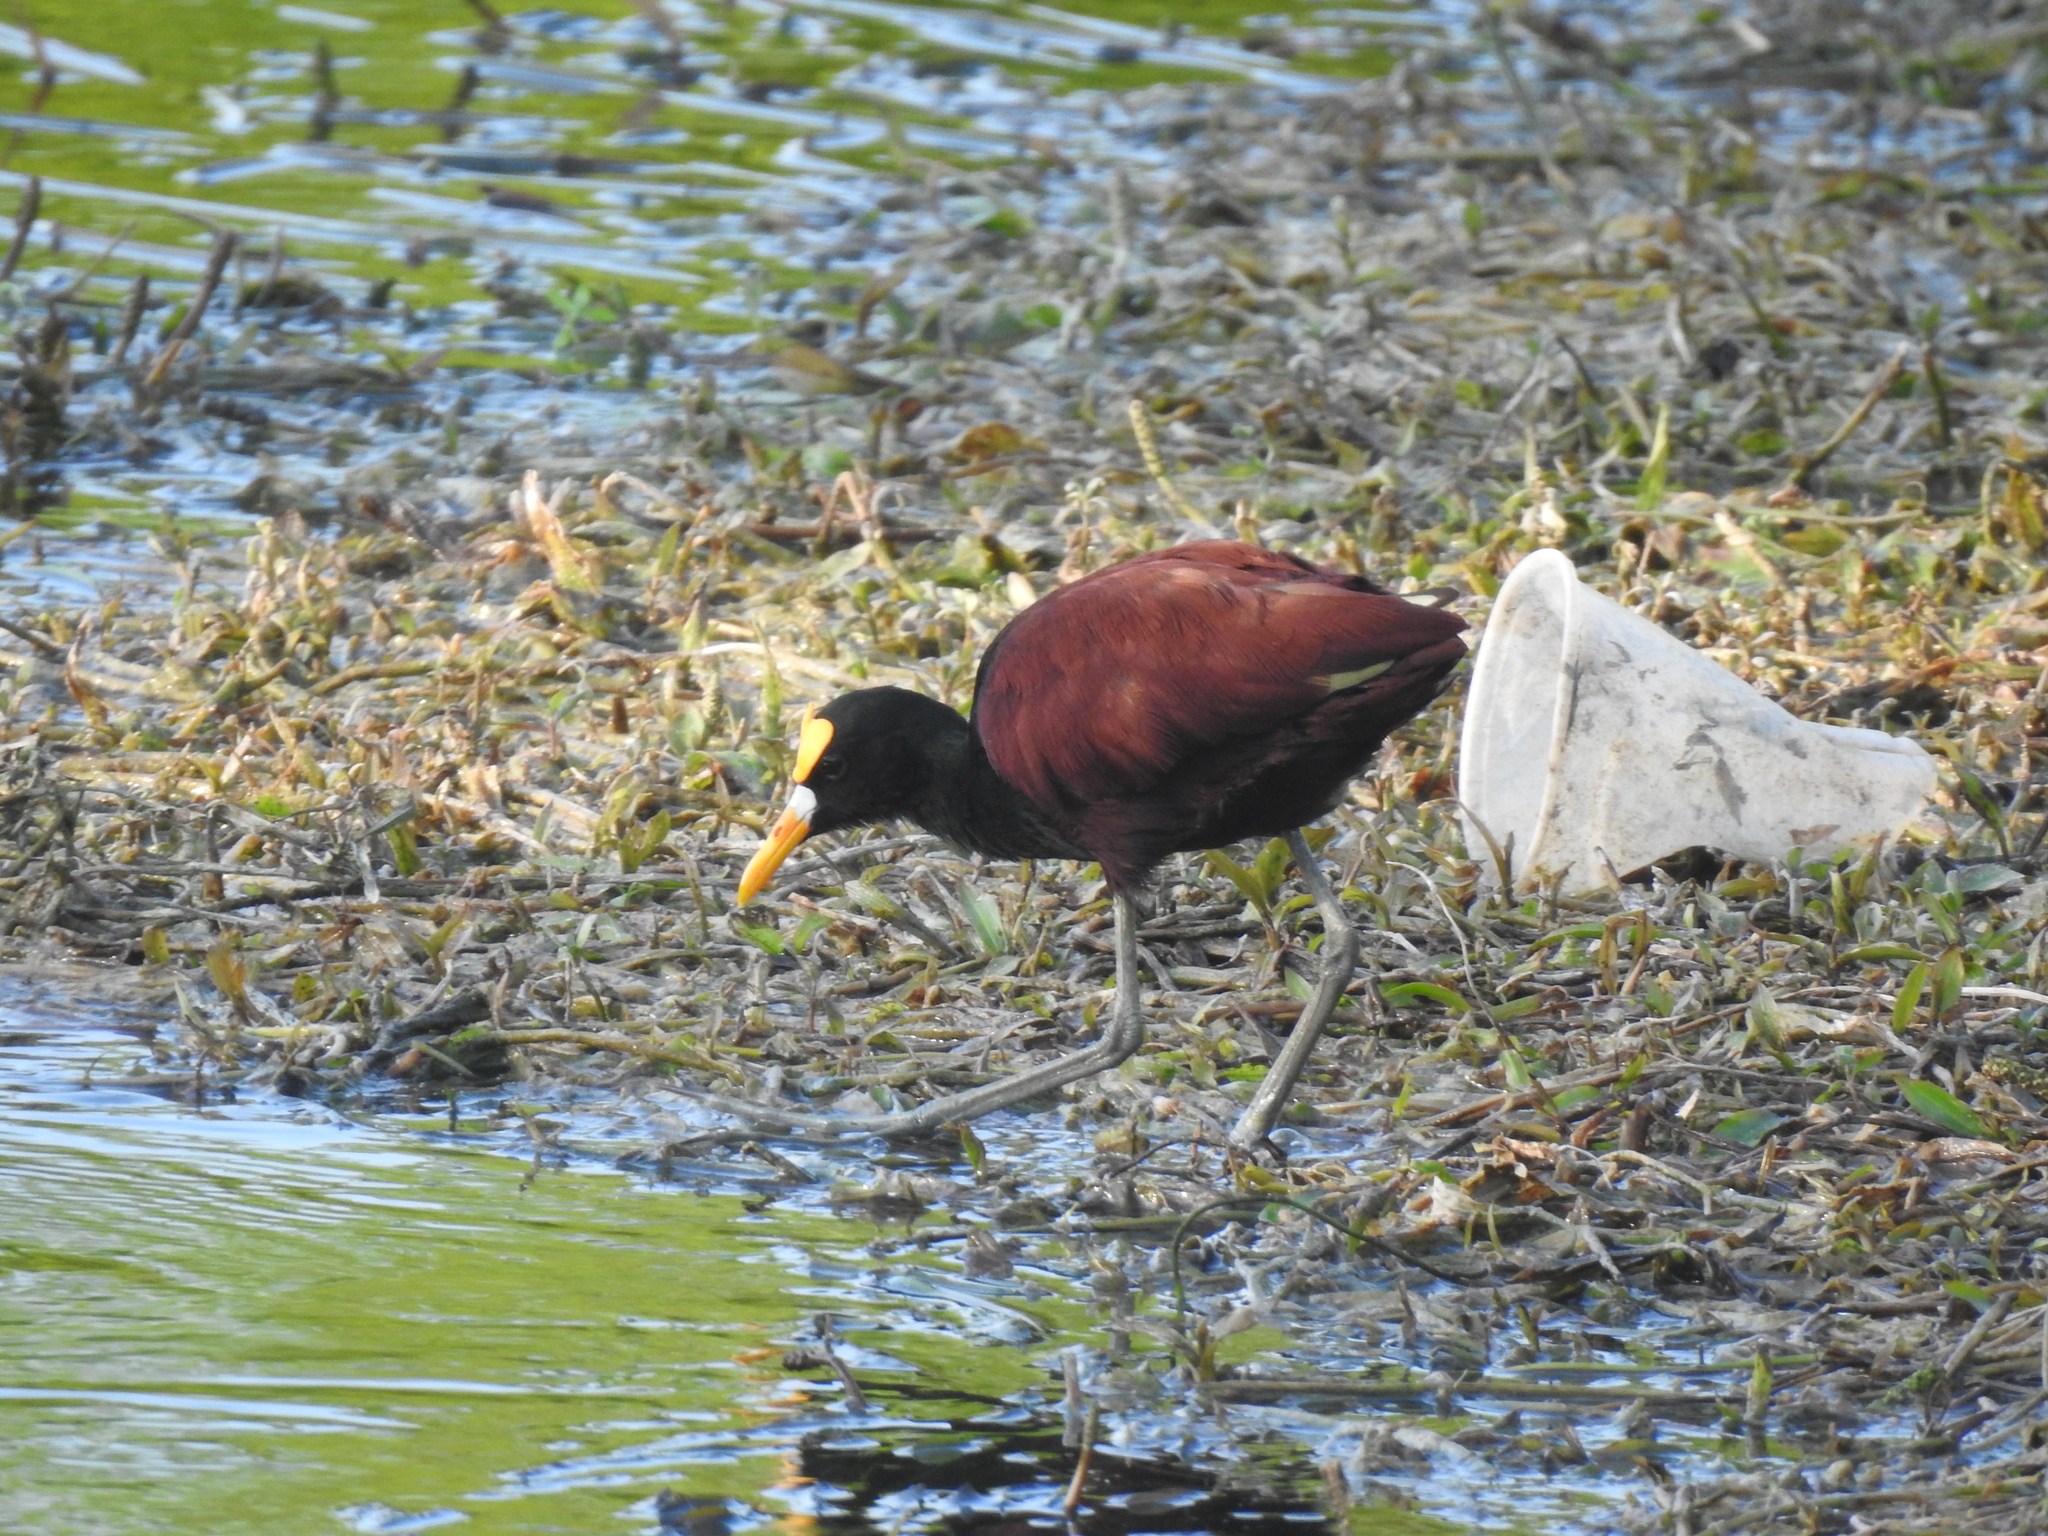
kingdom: Animalia
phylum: Chordata
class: Aves
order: Charadriiformes
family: Jacanidae
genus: Jacana
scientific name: Jacana spinosa
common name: Northern jacana
